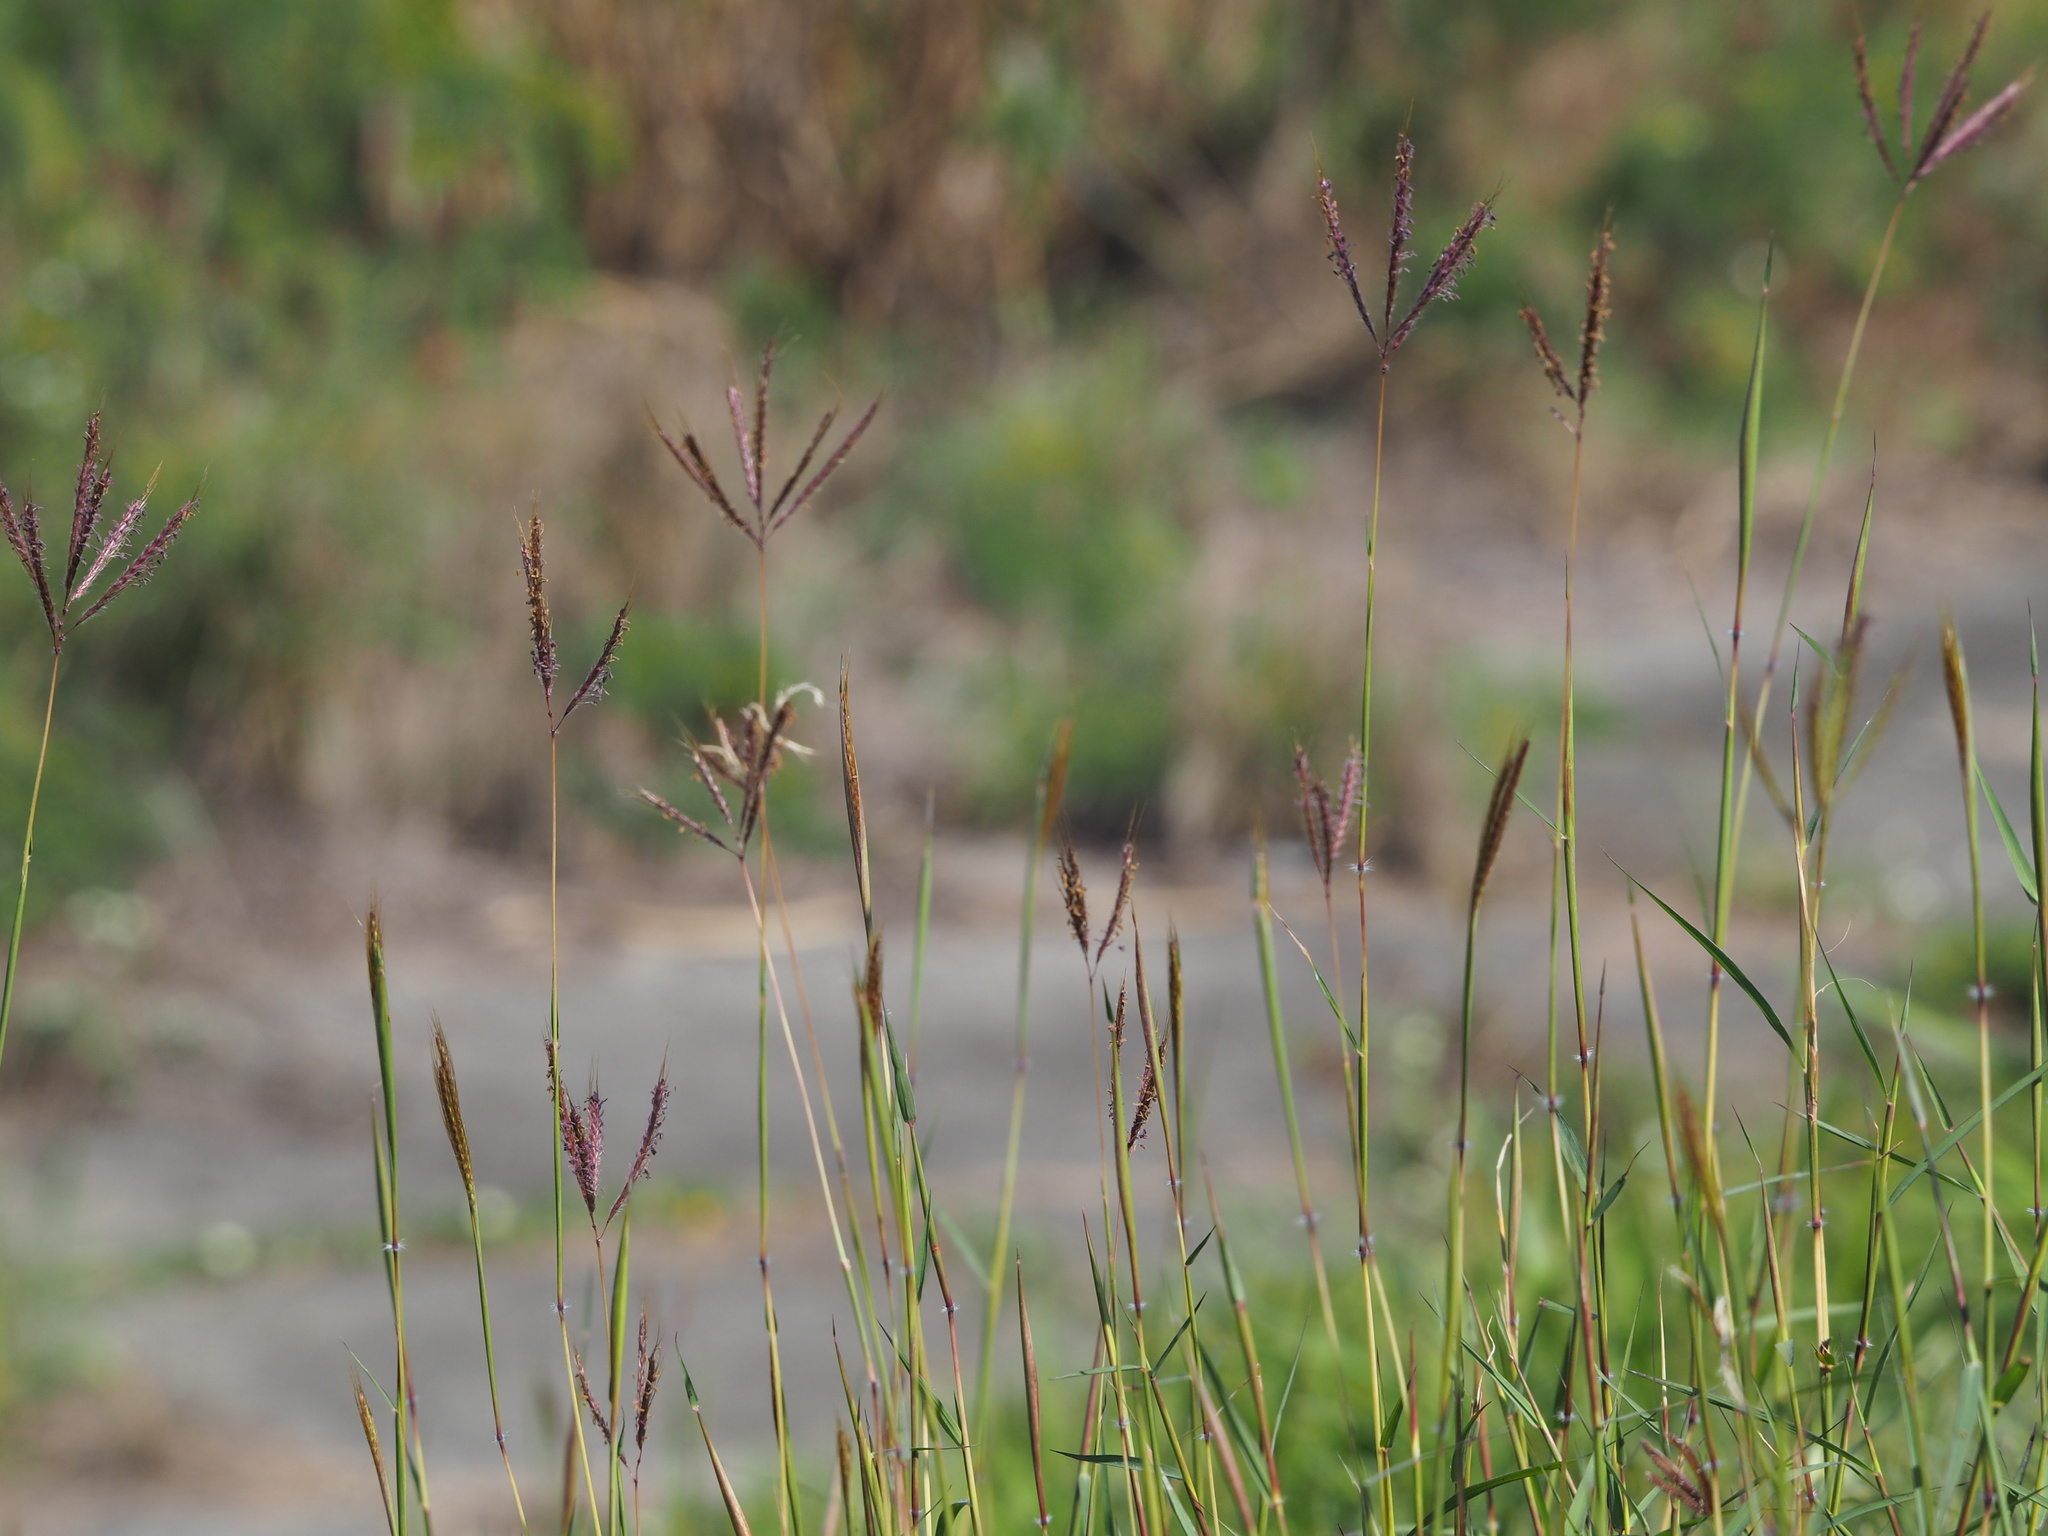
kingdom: Plantae
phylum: Tracheophyta
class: Liliopsida
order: Poales
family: Poaceae
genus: Dichanthium
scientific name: Dichanthium annulatum
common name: Kleberg's bluestem
